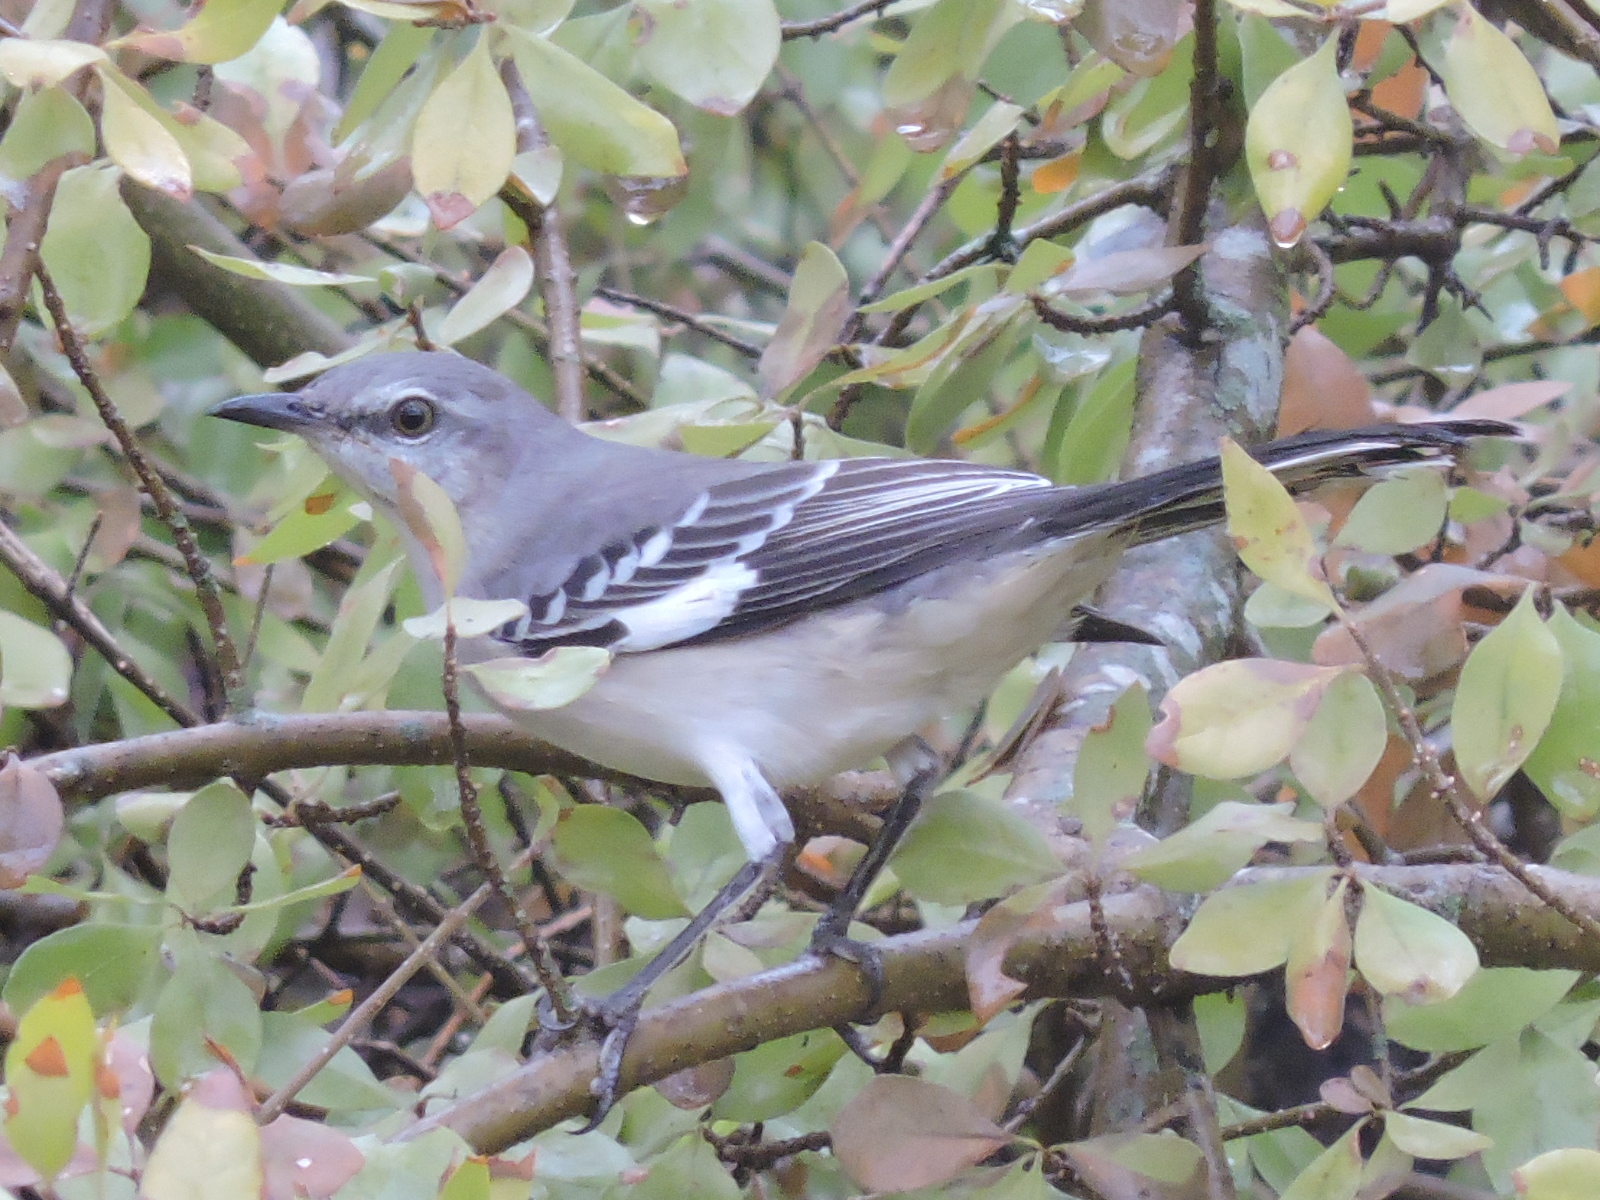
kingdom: Animalia
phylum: Chordata
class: Aves
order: Passeriformes
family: Mimidae
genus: Mimus
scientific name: Mimus polyglottos
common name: Northern mockingbird
